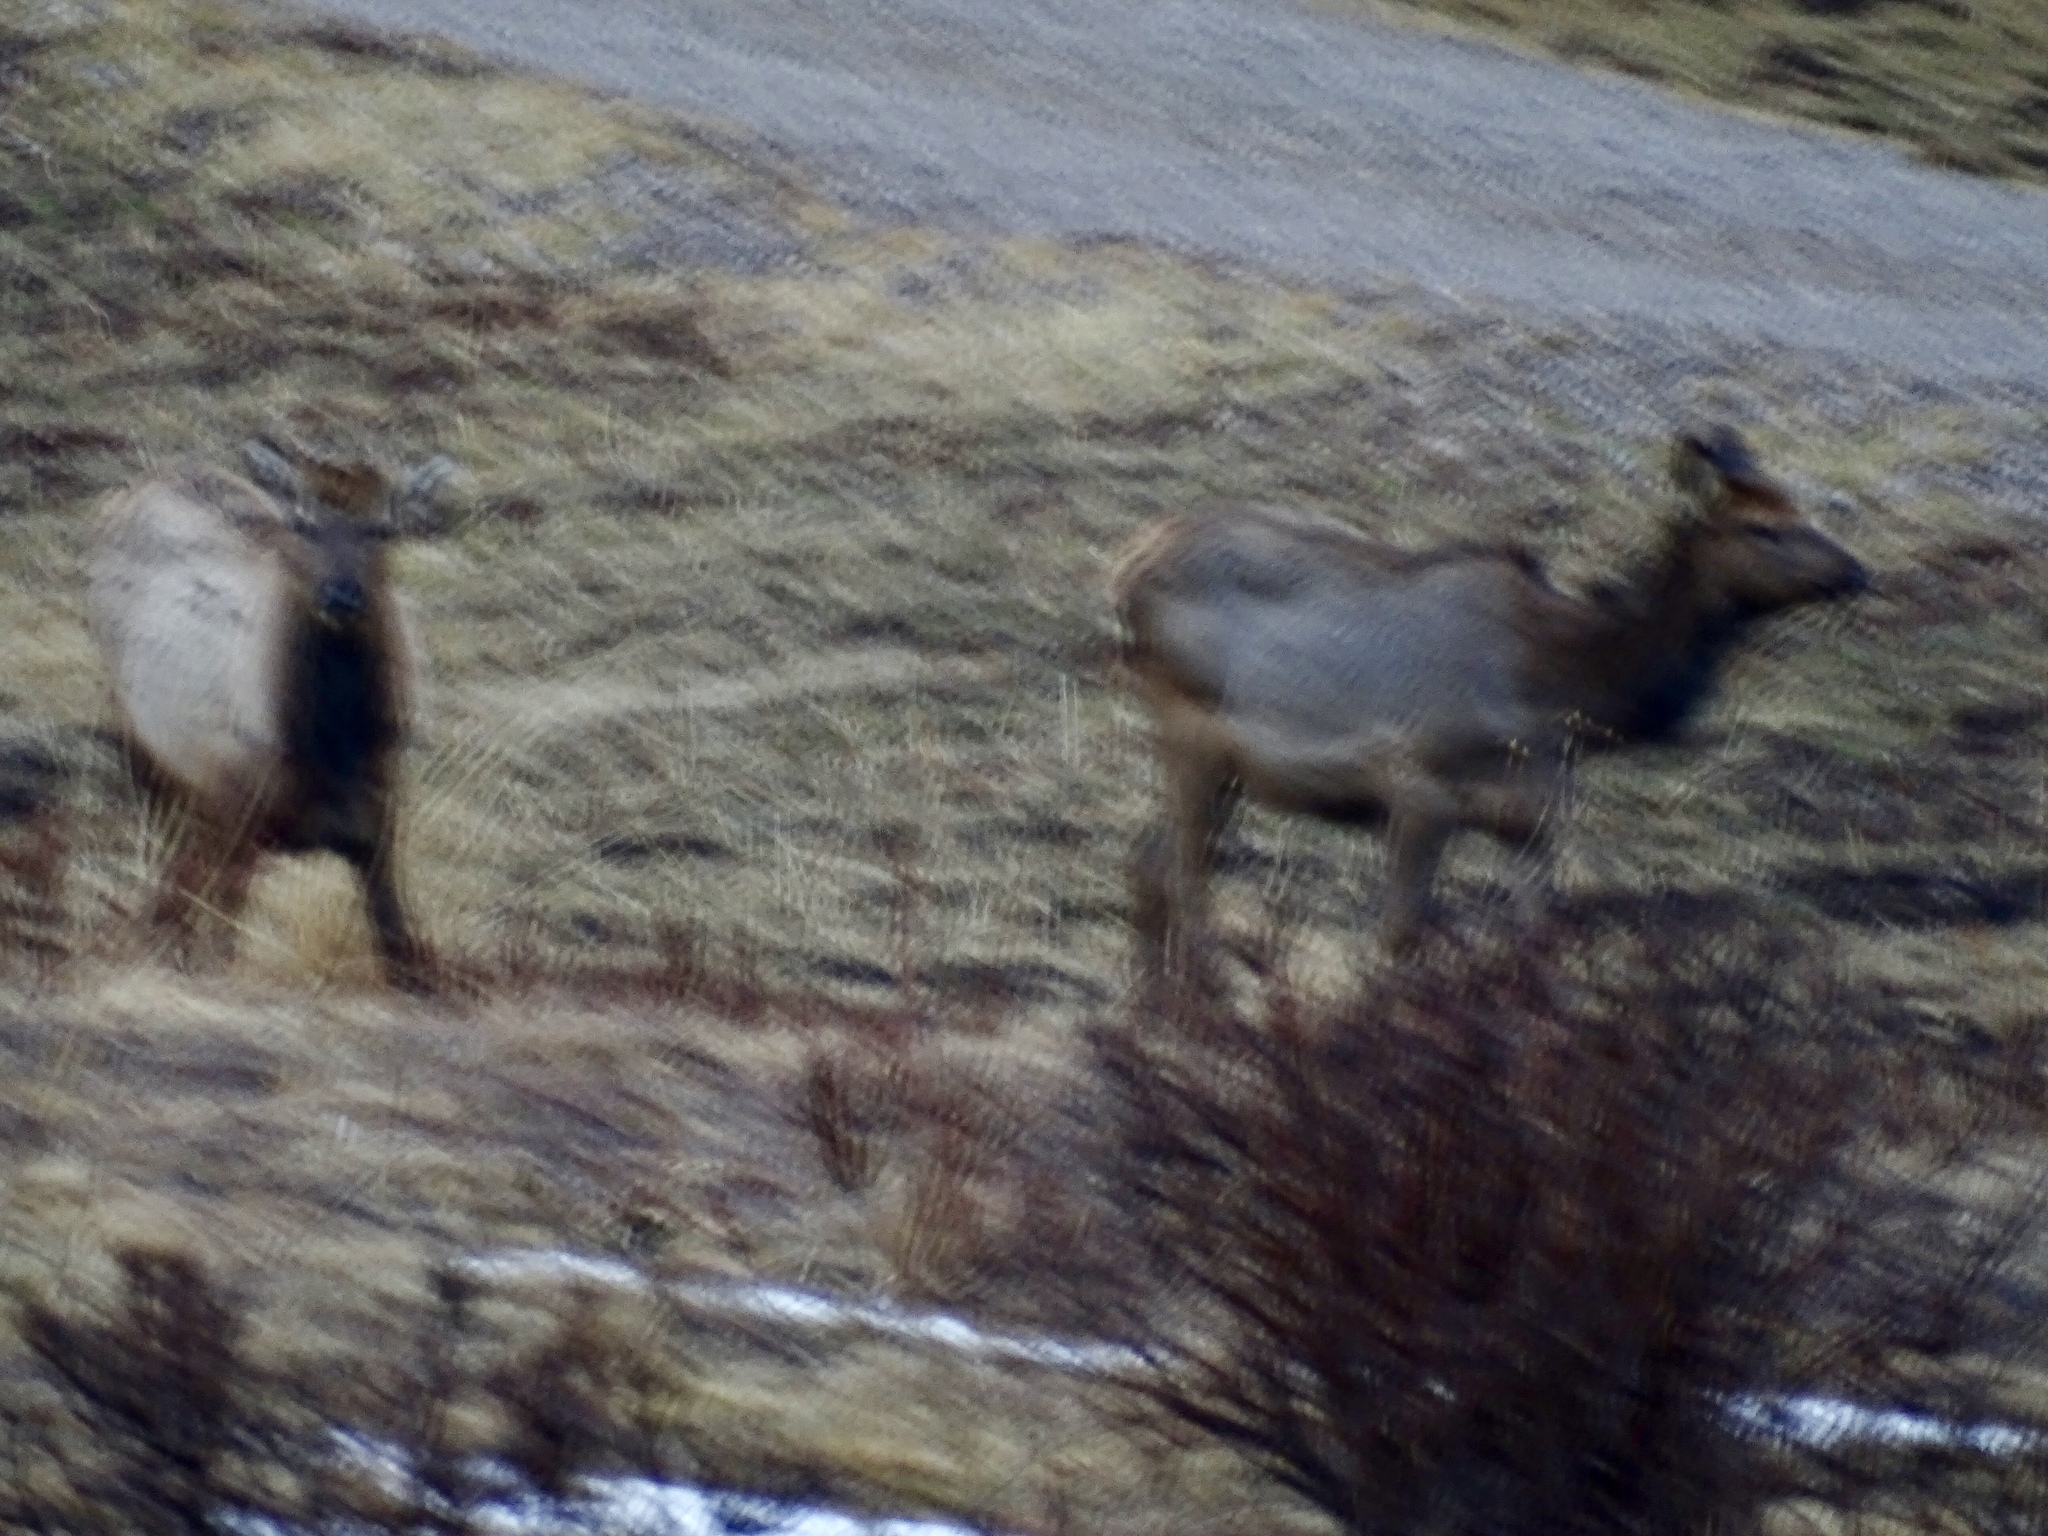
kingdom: Animalia
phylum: Chordata
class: Mammalia
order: Artiodactyla
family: Cervidae
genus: Cervus
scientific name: Cervus elaphus
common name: Red deer
